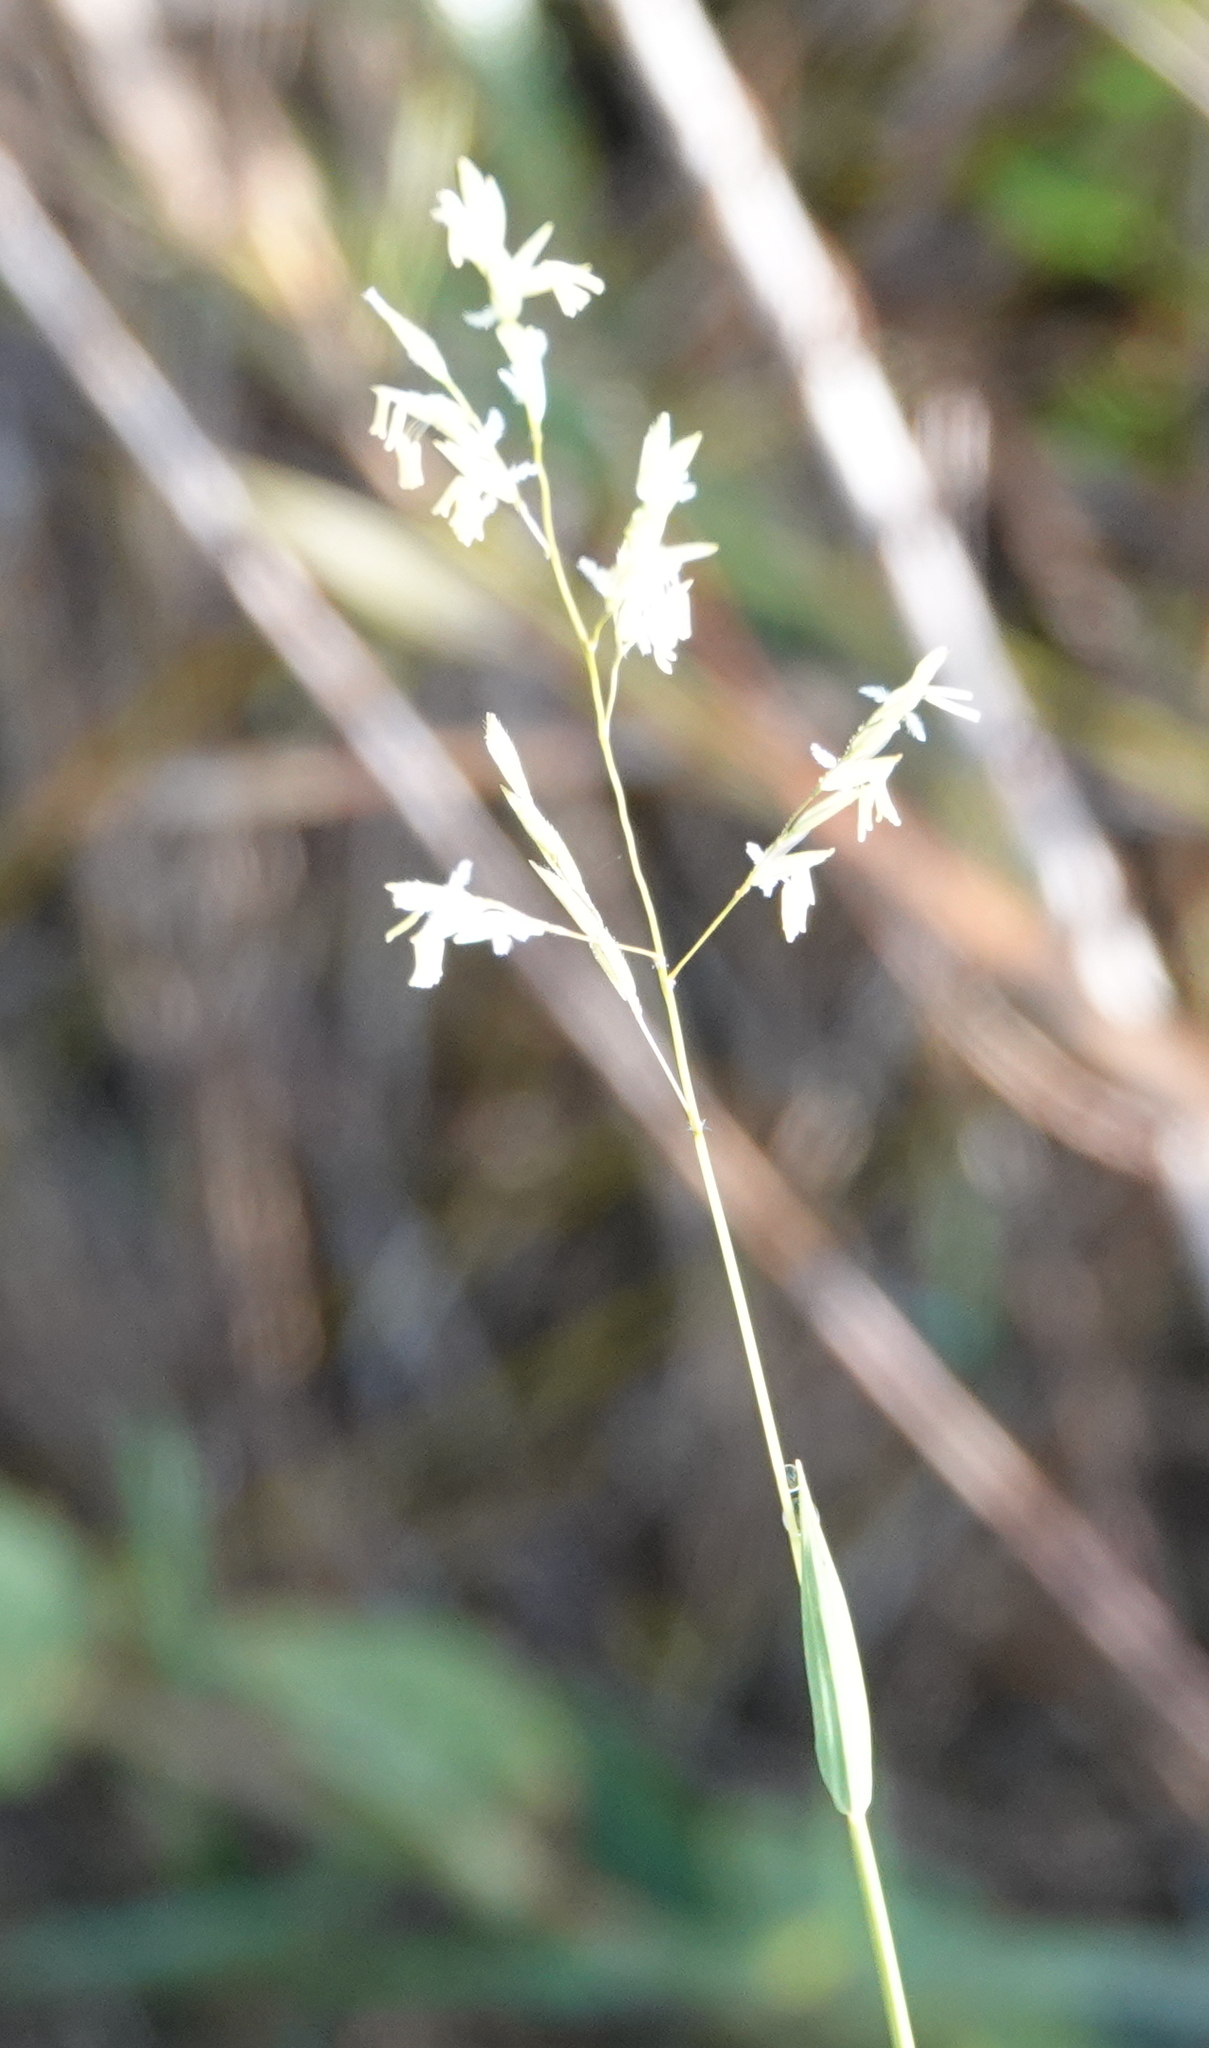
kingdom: Plantae
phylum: Tracheophyta
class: Liliopsida
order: Poales
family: Poaceae
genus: Leersia
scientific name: Leersia hexandra
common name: Southern cut grass
